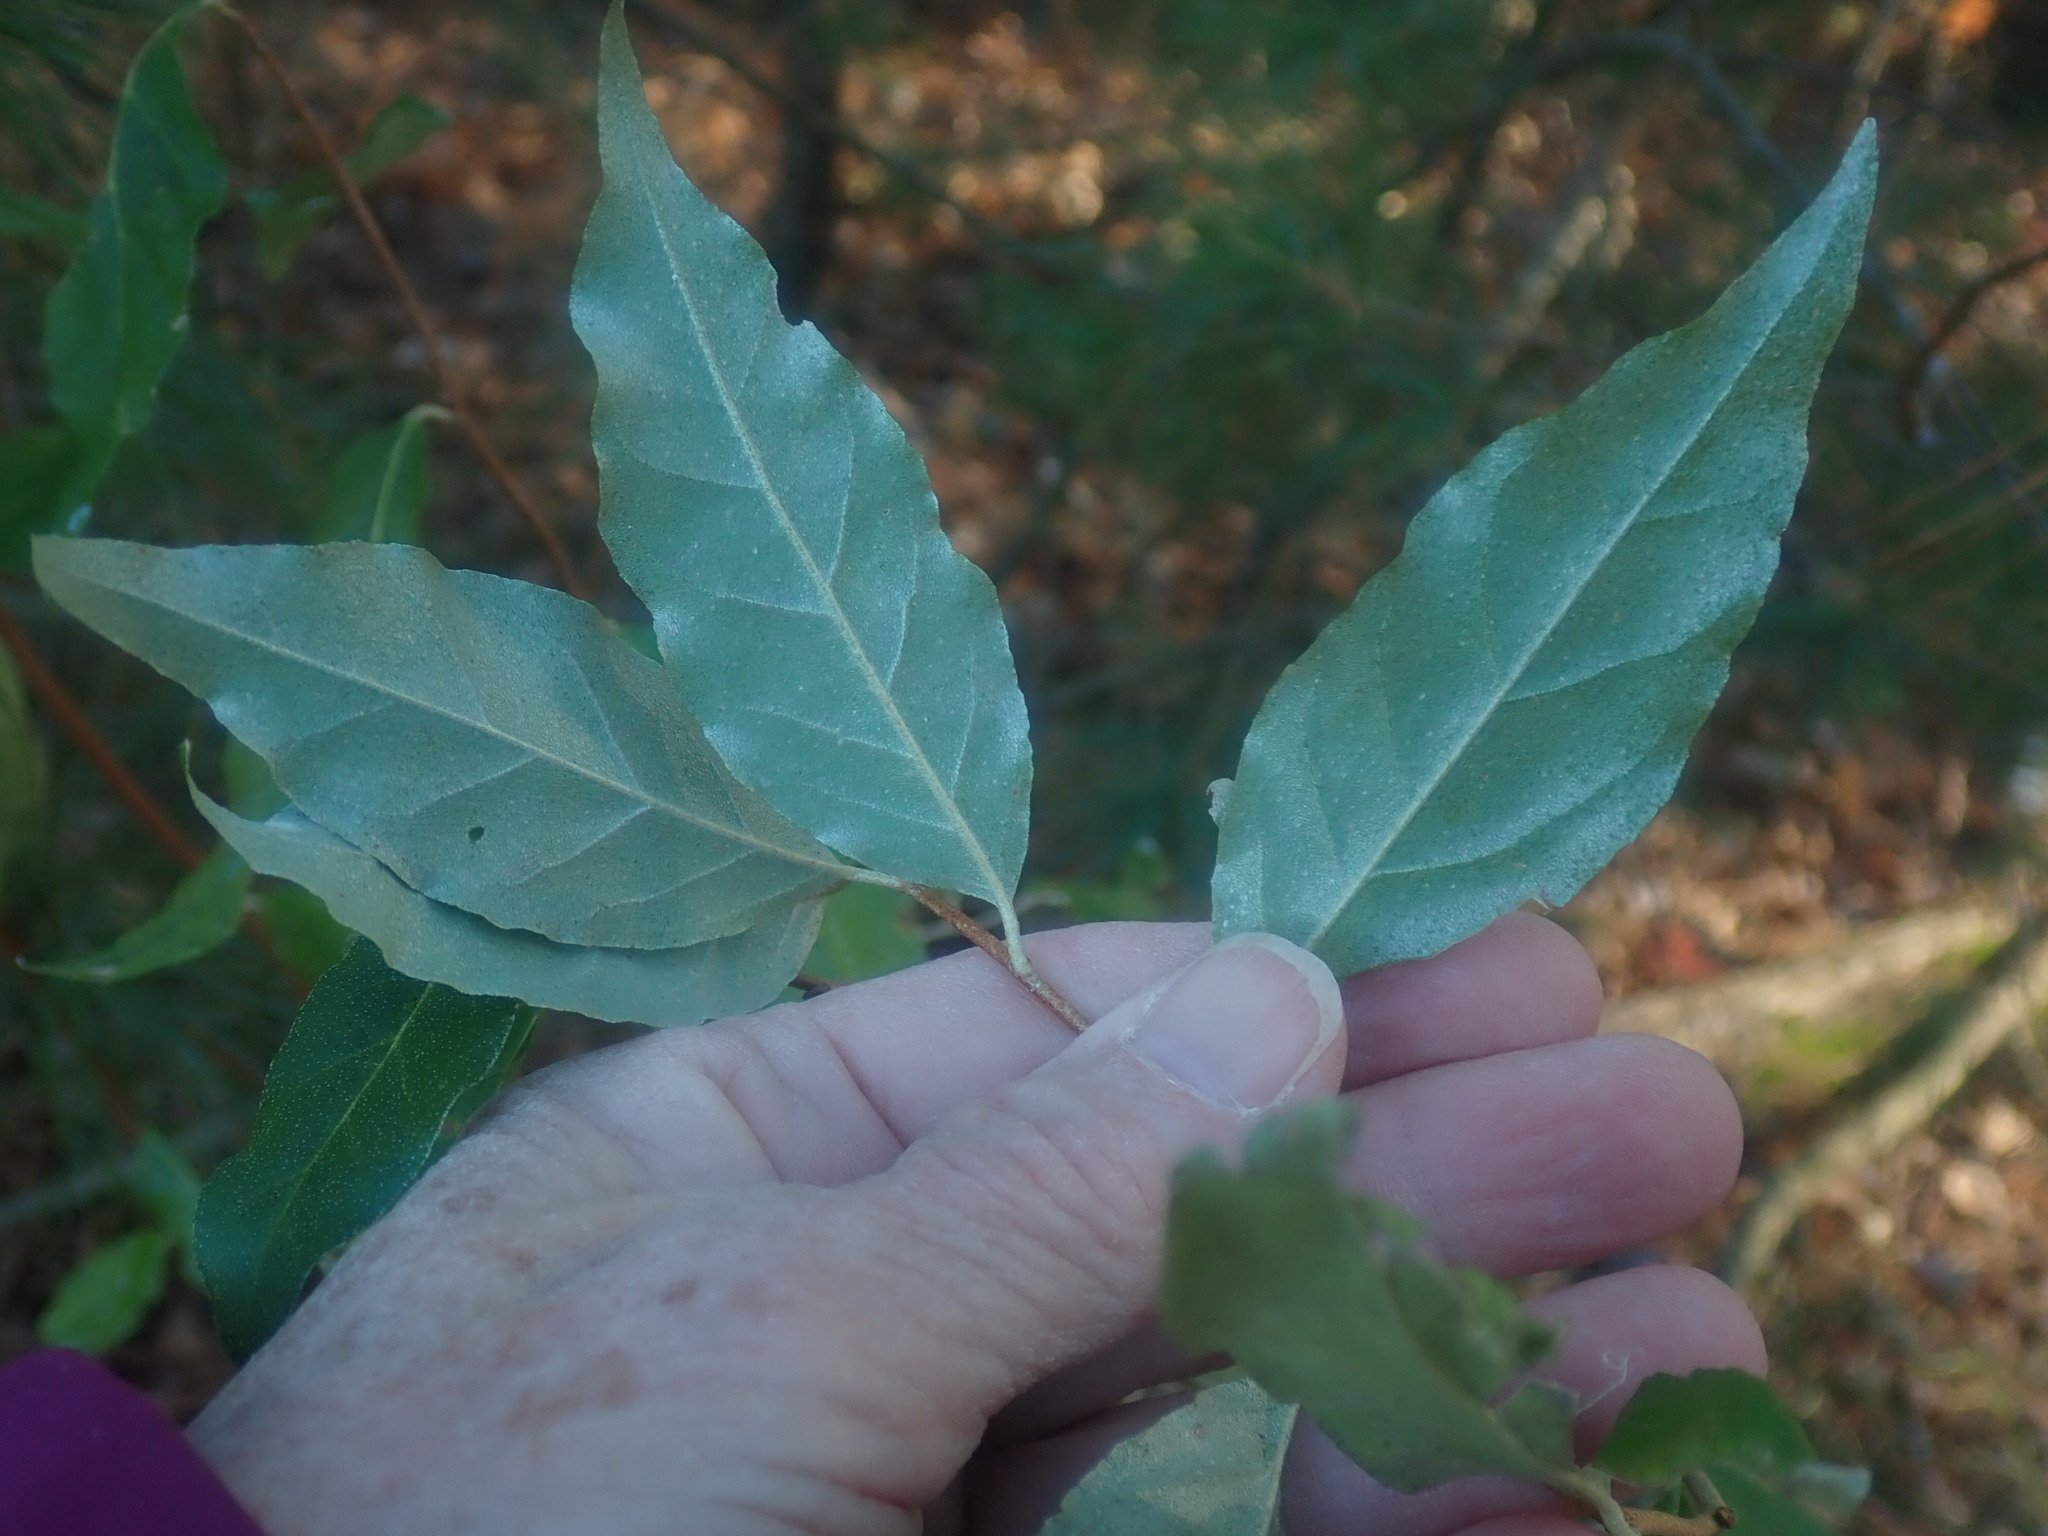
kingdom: Plantae
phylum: Tracheophyta
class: Magnoliopsida
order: Rosales
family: Elaeagnaceae
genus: Elaeagnus
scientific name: Elaeagnus umbellata
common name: Autumn olive
